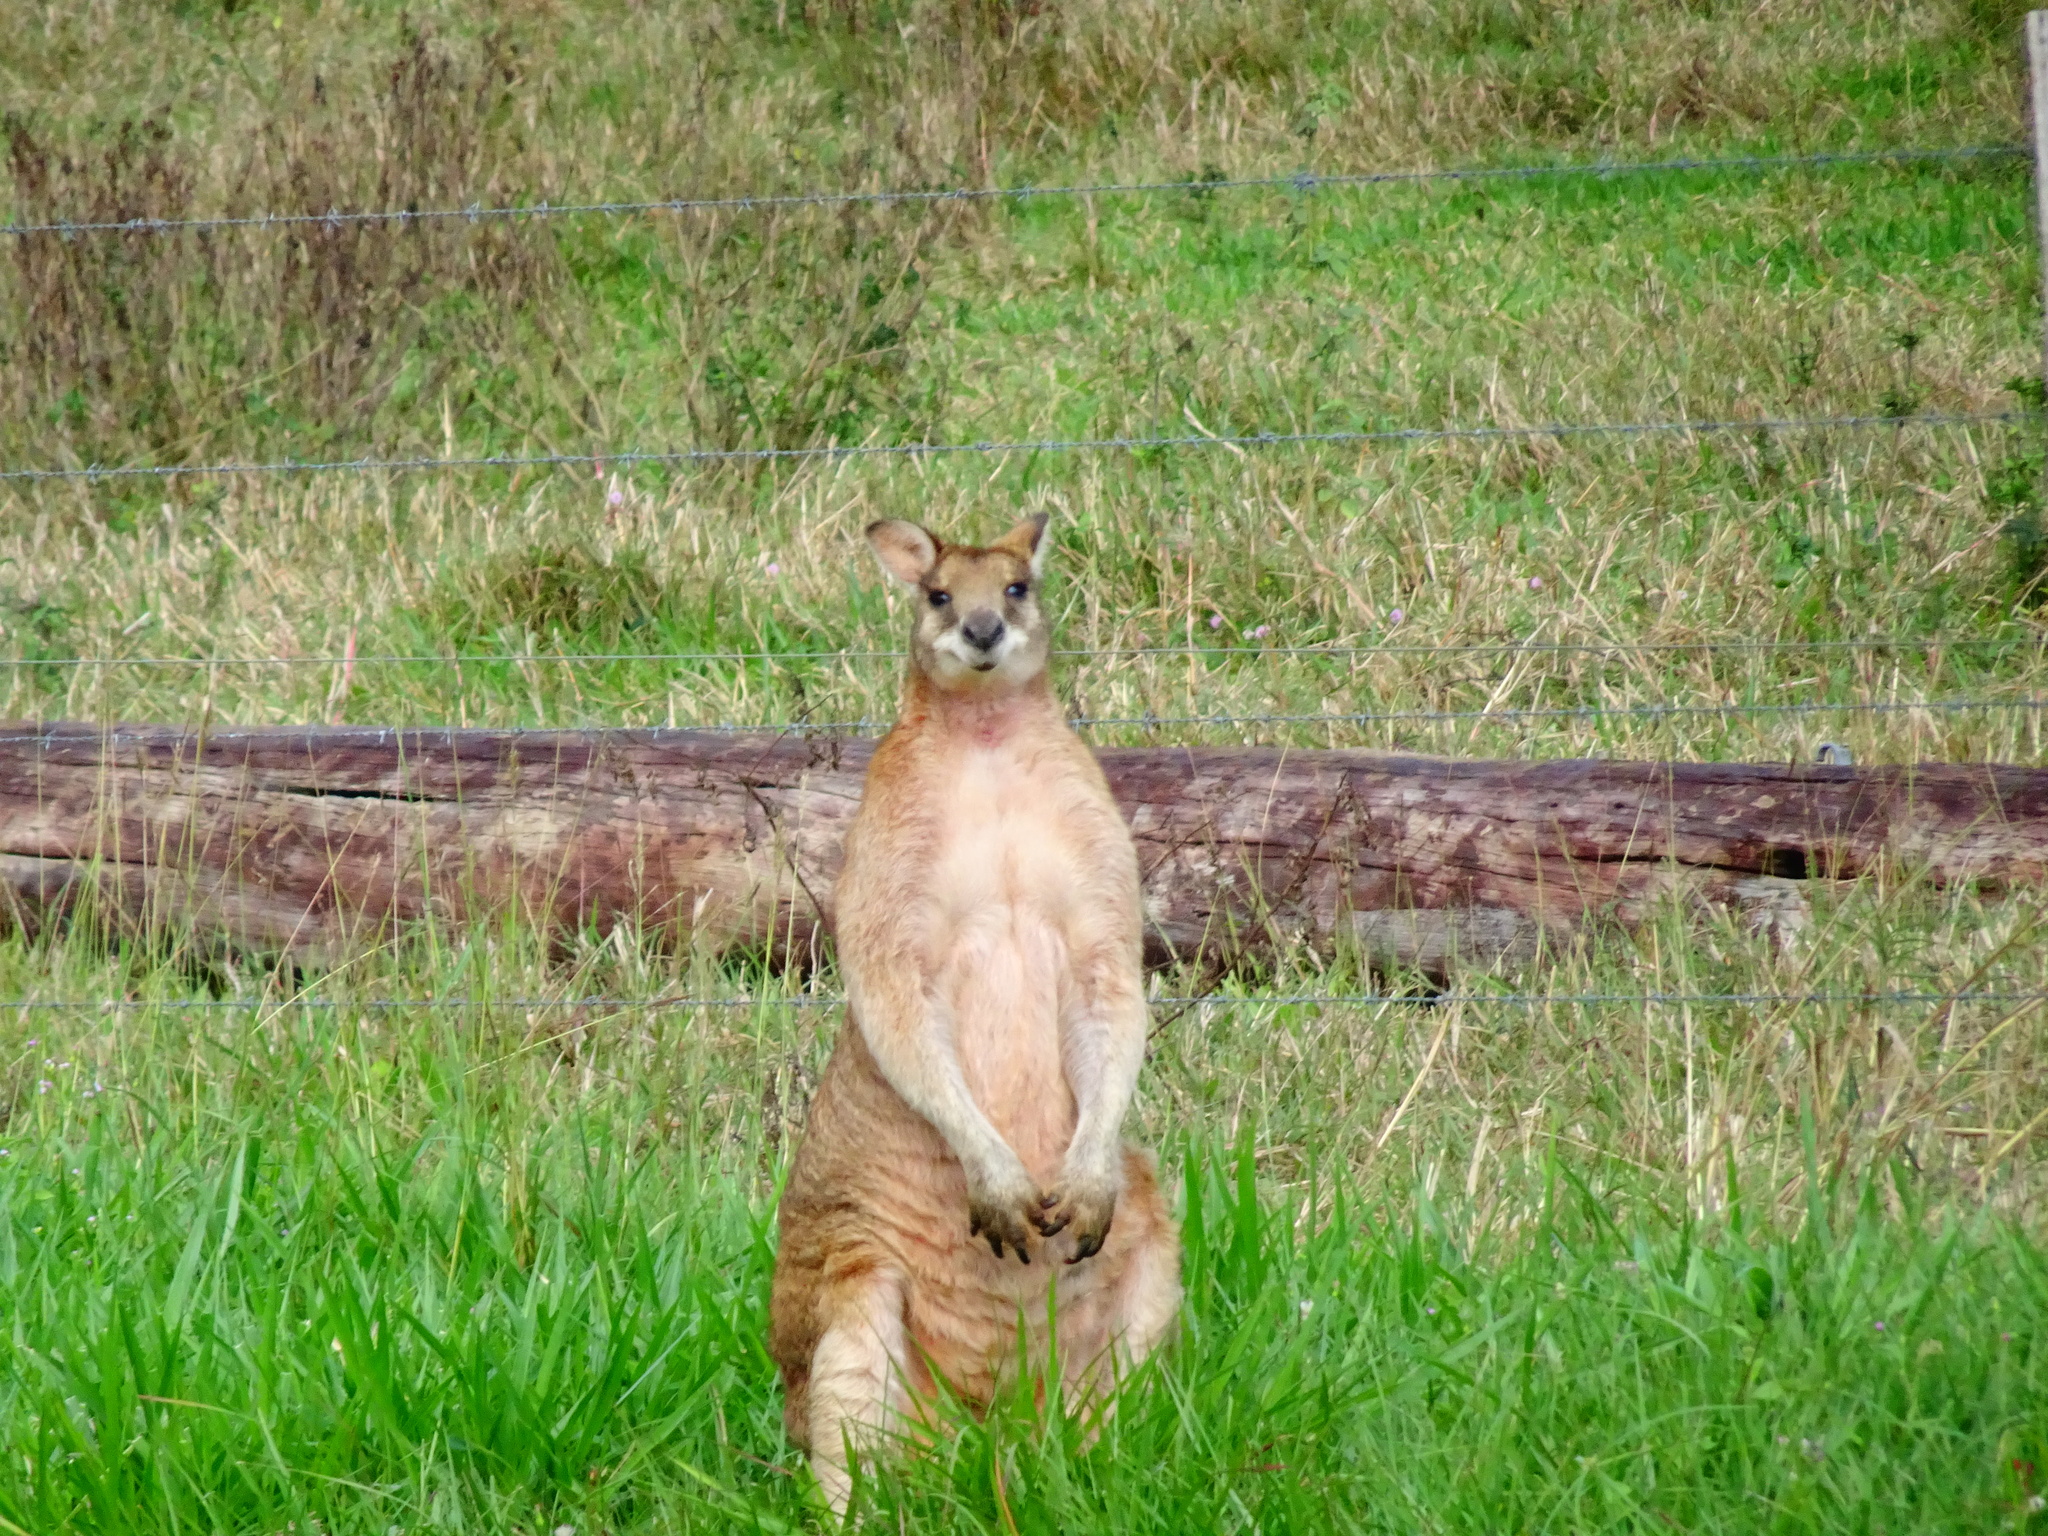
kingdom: Animalia
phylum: Chordata
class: Mammalia
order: Diprotodontia
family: Macropodidae
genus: Macropus
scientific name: Macropus agilis
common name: Agile wallaby
